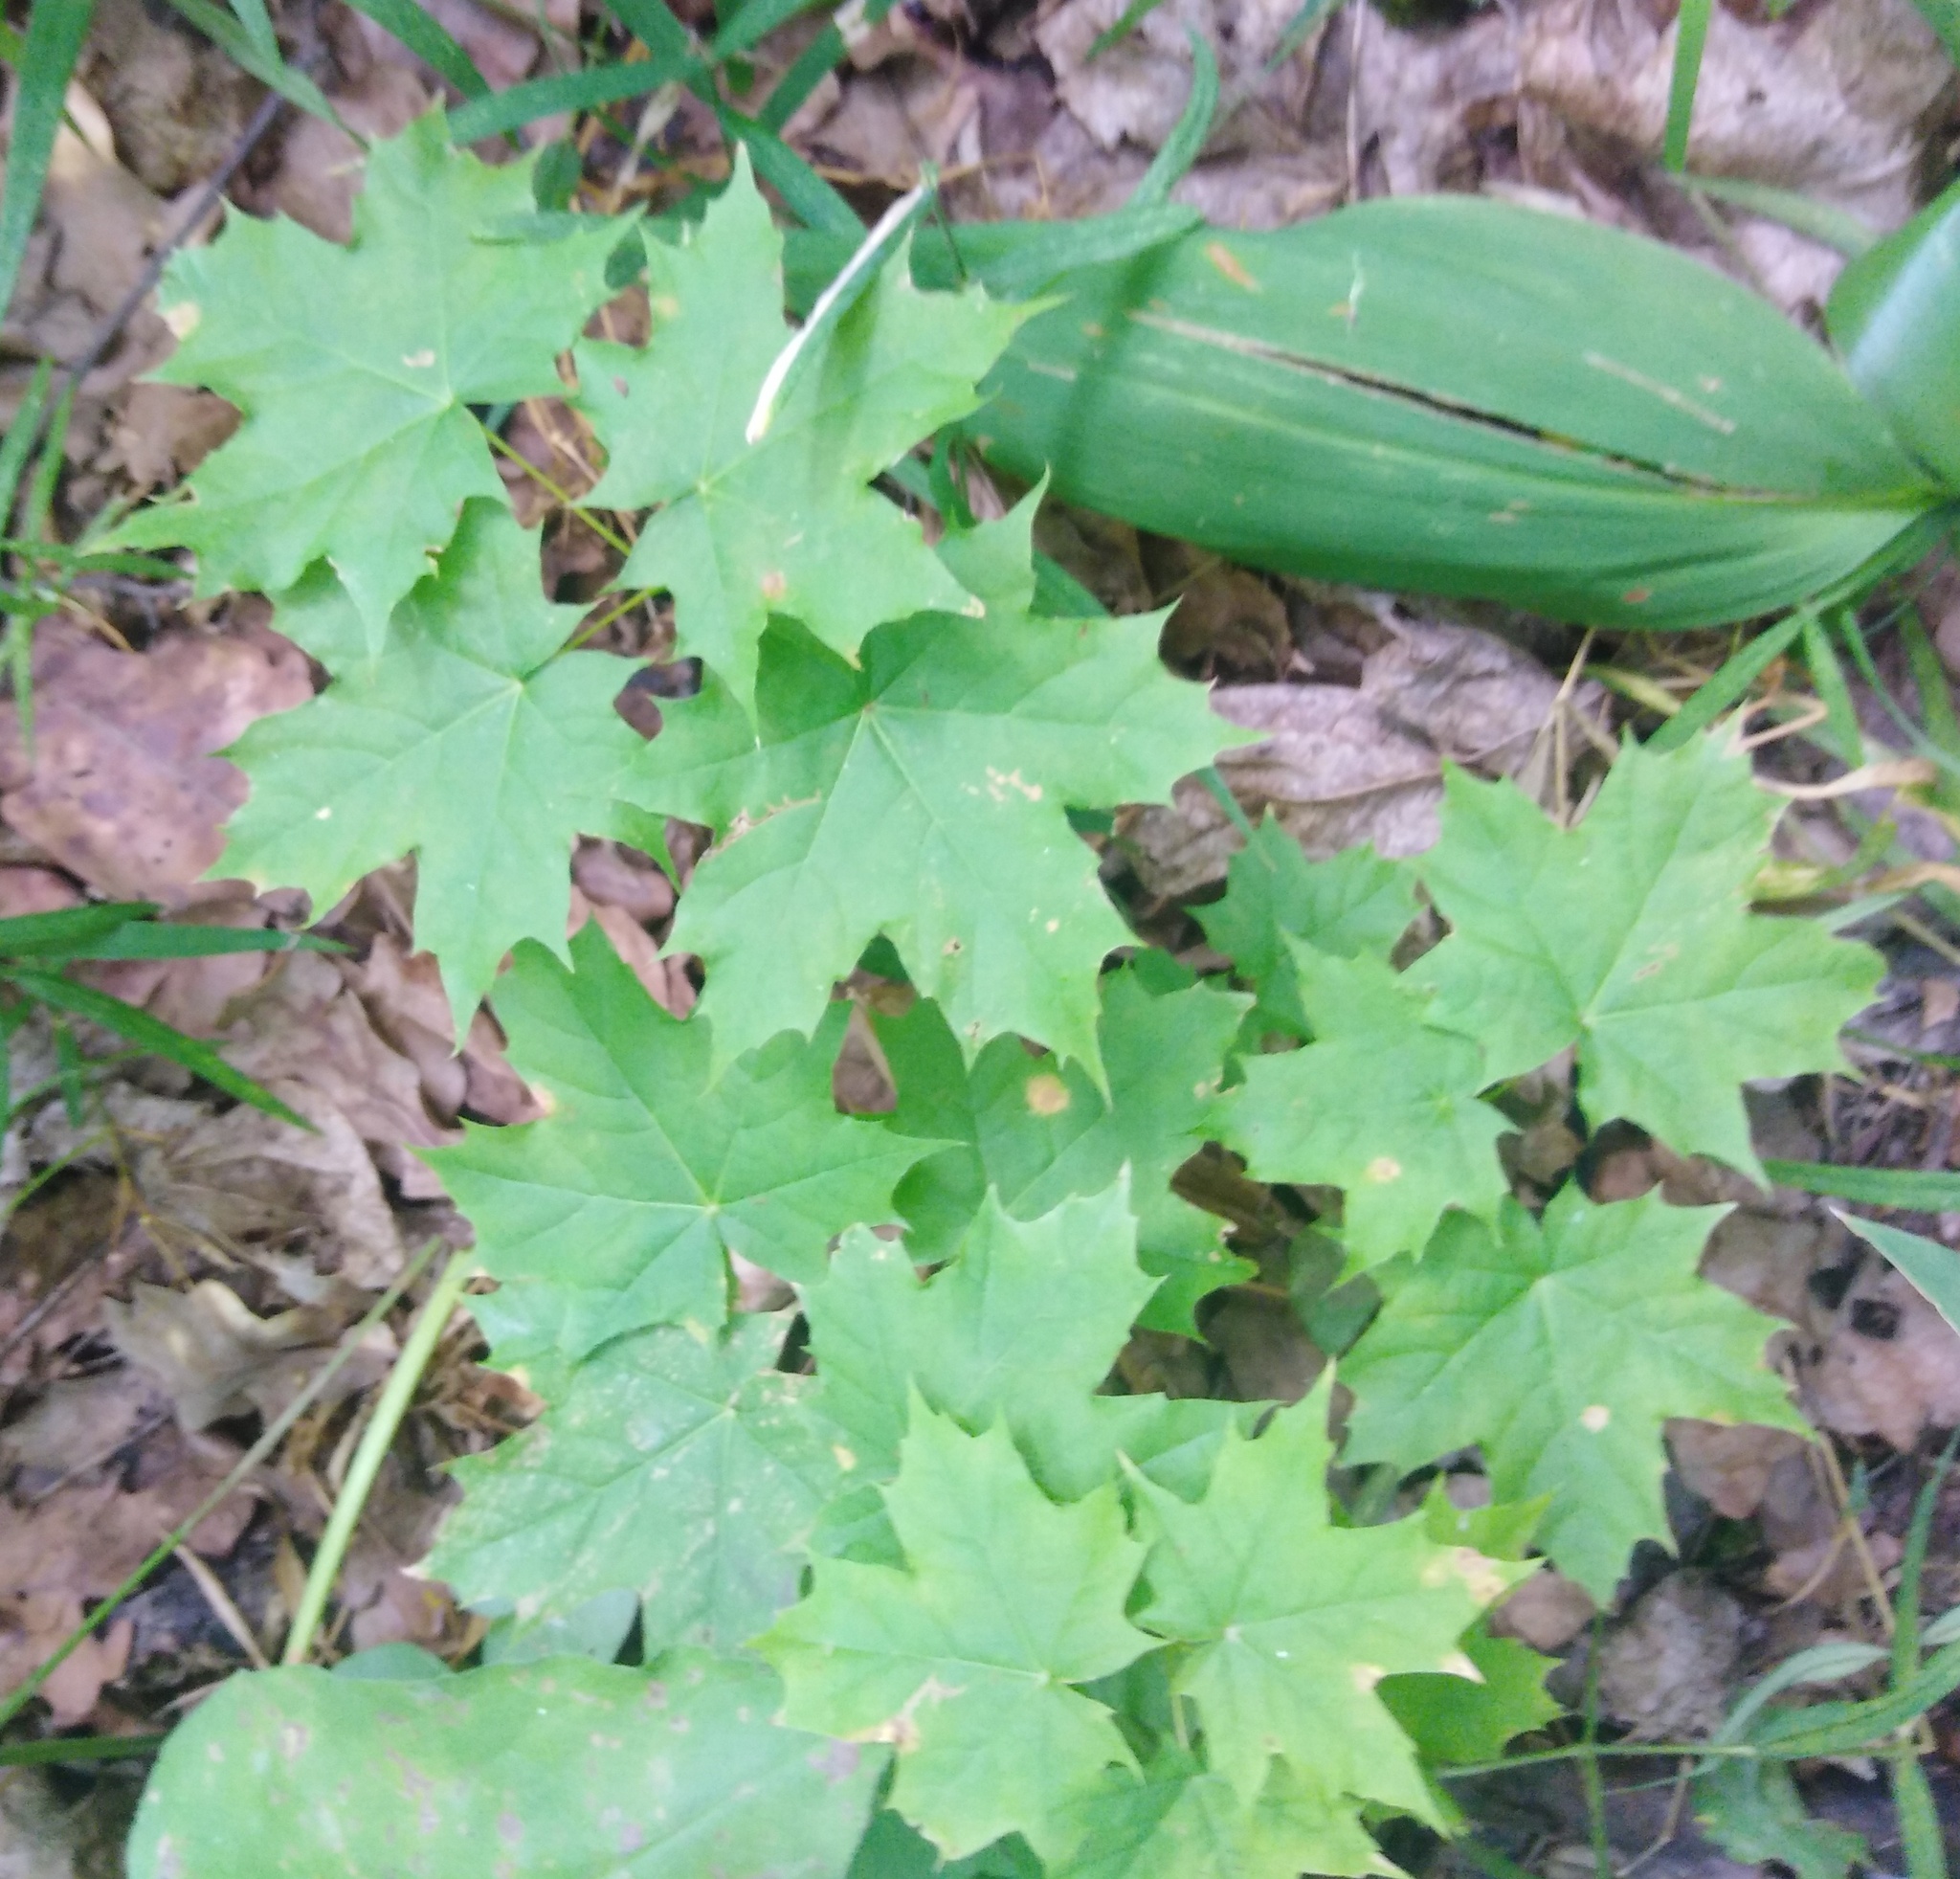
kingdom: Plantae
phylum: Tracheophyta
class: Magnoliopsida
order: Sapindales
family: Sapindaceae
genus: Acer
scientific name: Acer platanoides
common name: Norway maple
